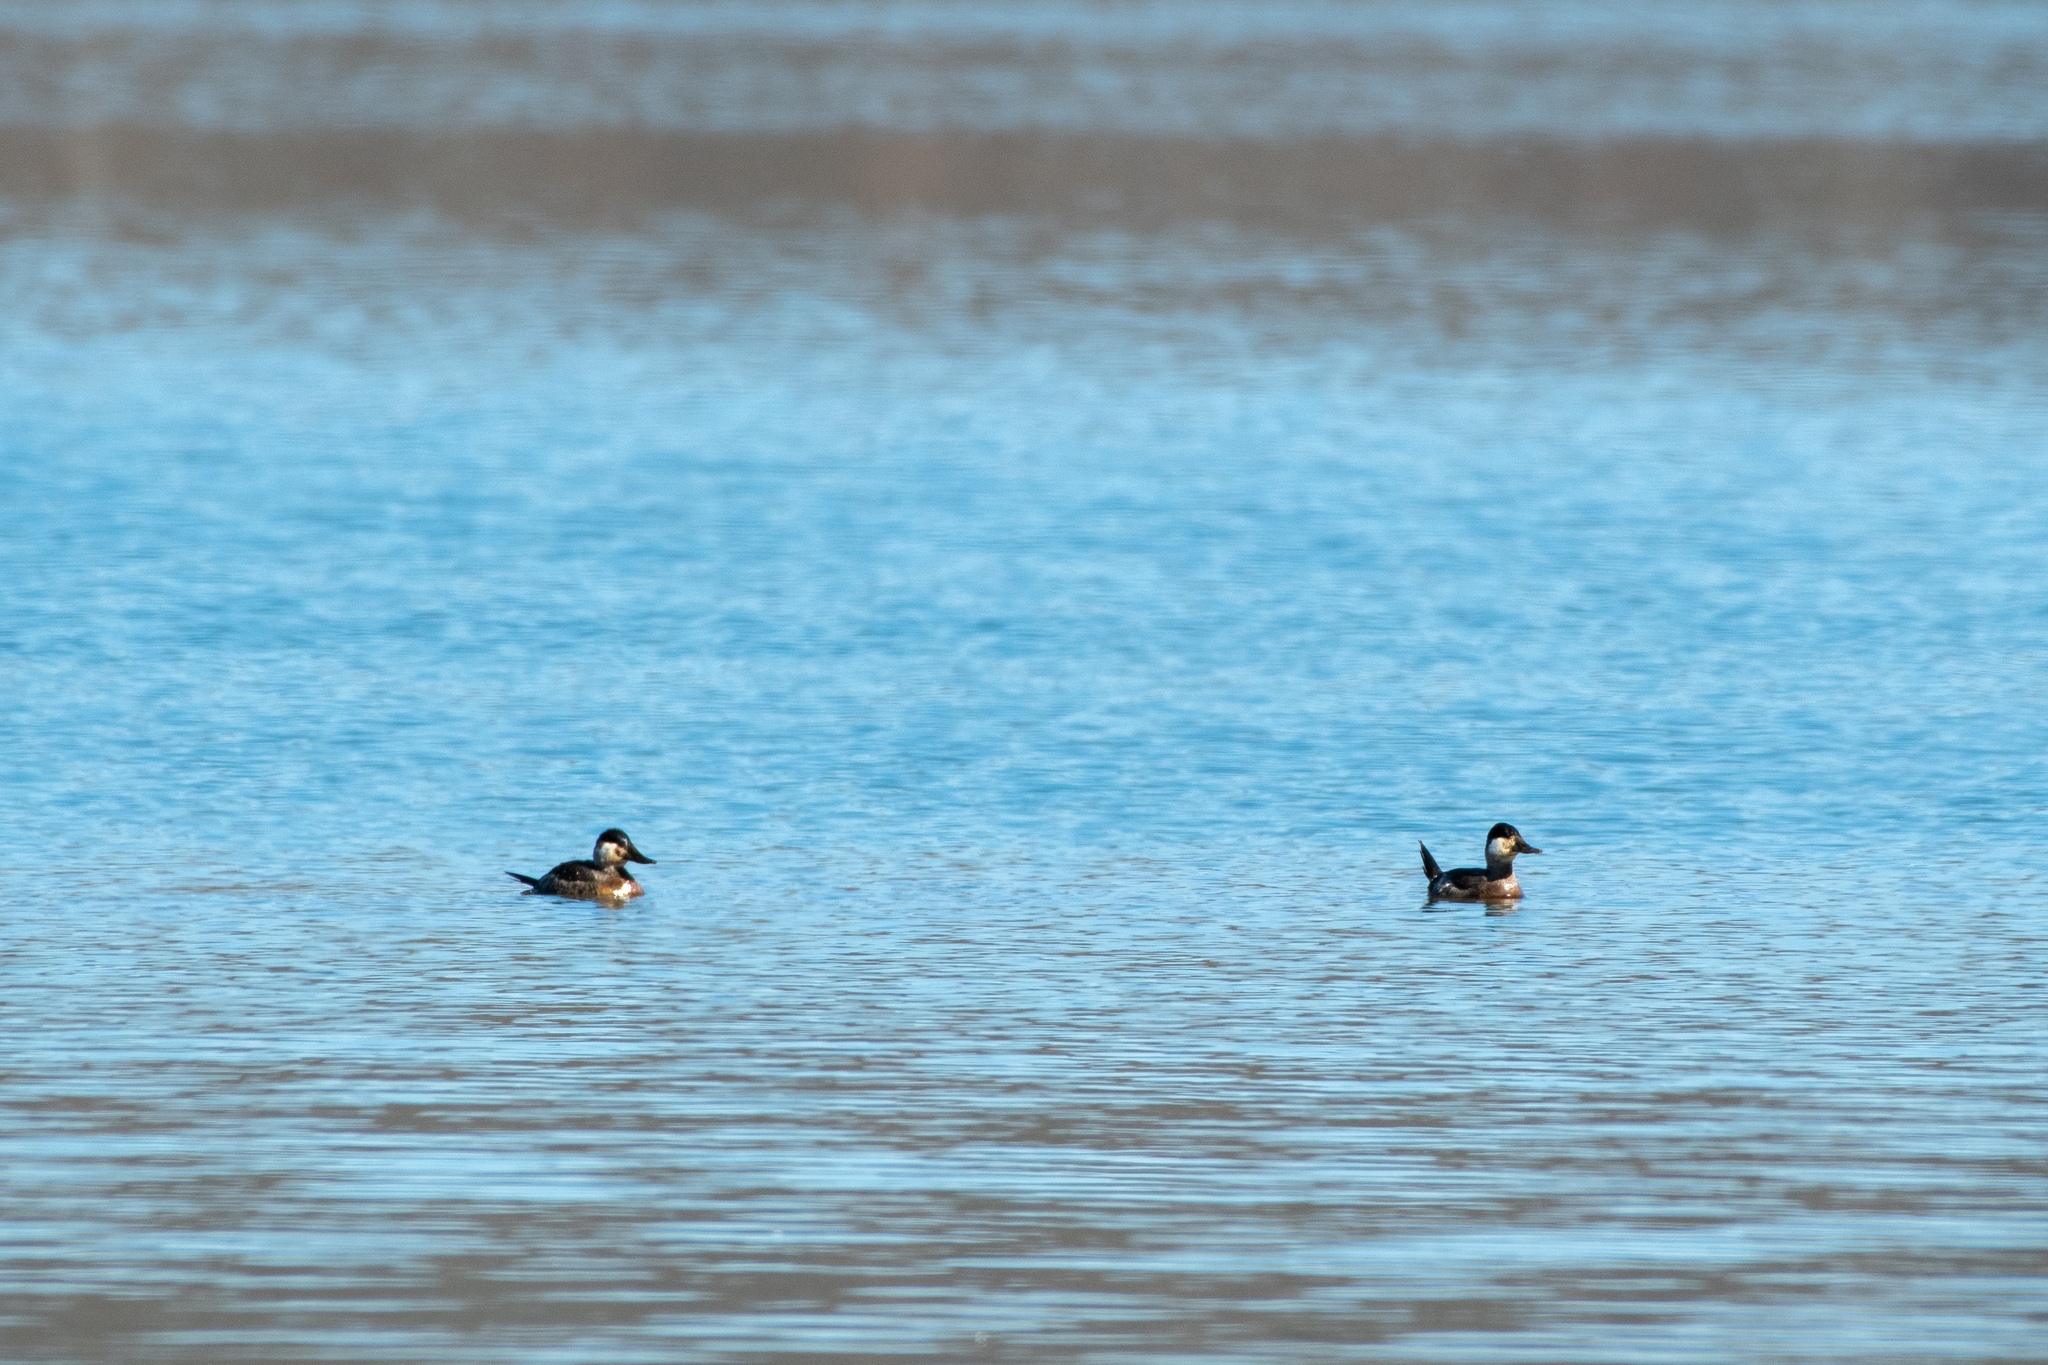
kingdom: Animalia
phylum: Chordata
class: Aves
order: Anseriformes
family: Anatidae
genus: Oxyura
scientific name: Oxyura jamaicensis
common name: Ruddy duck
